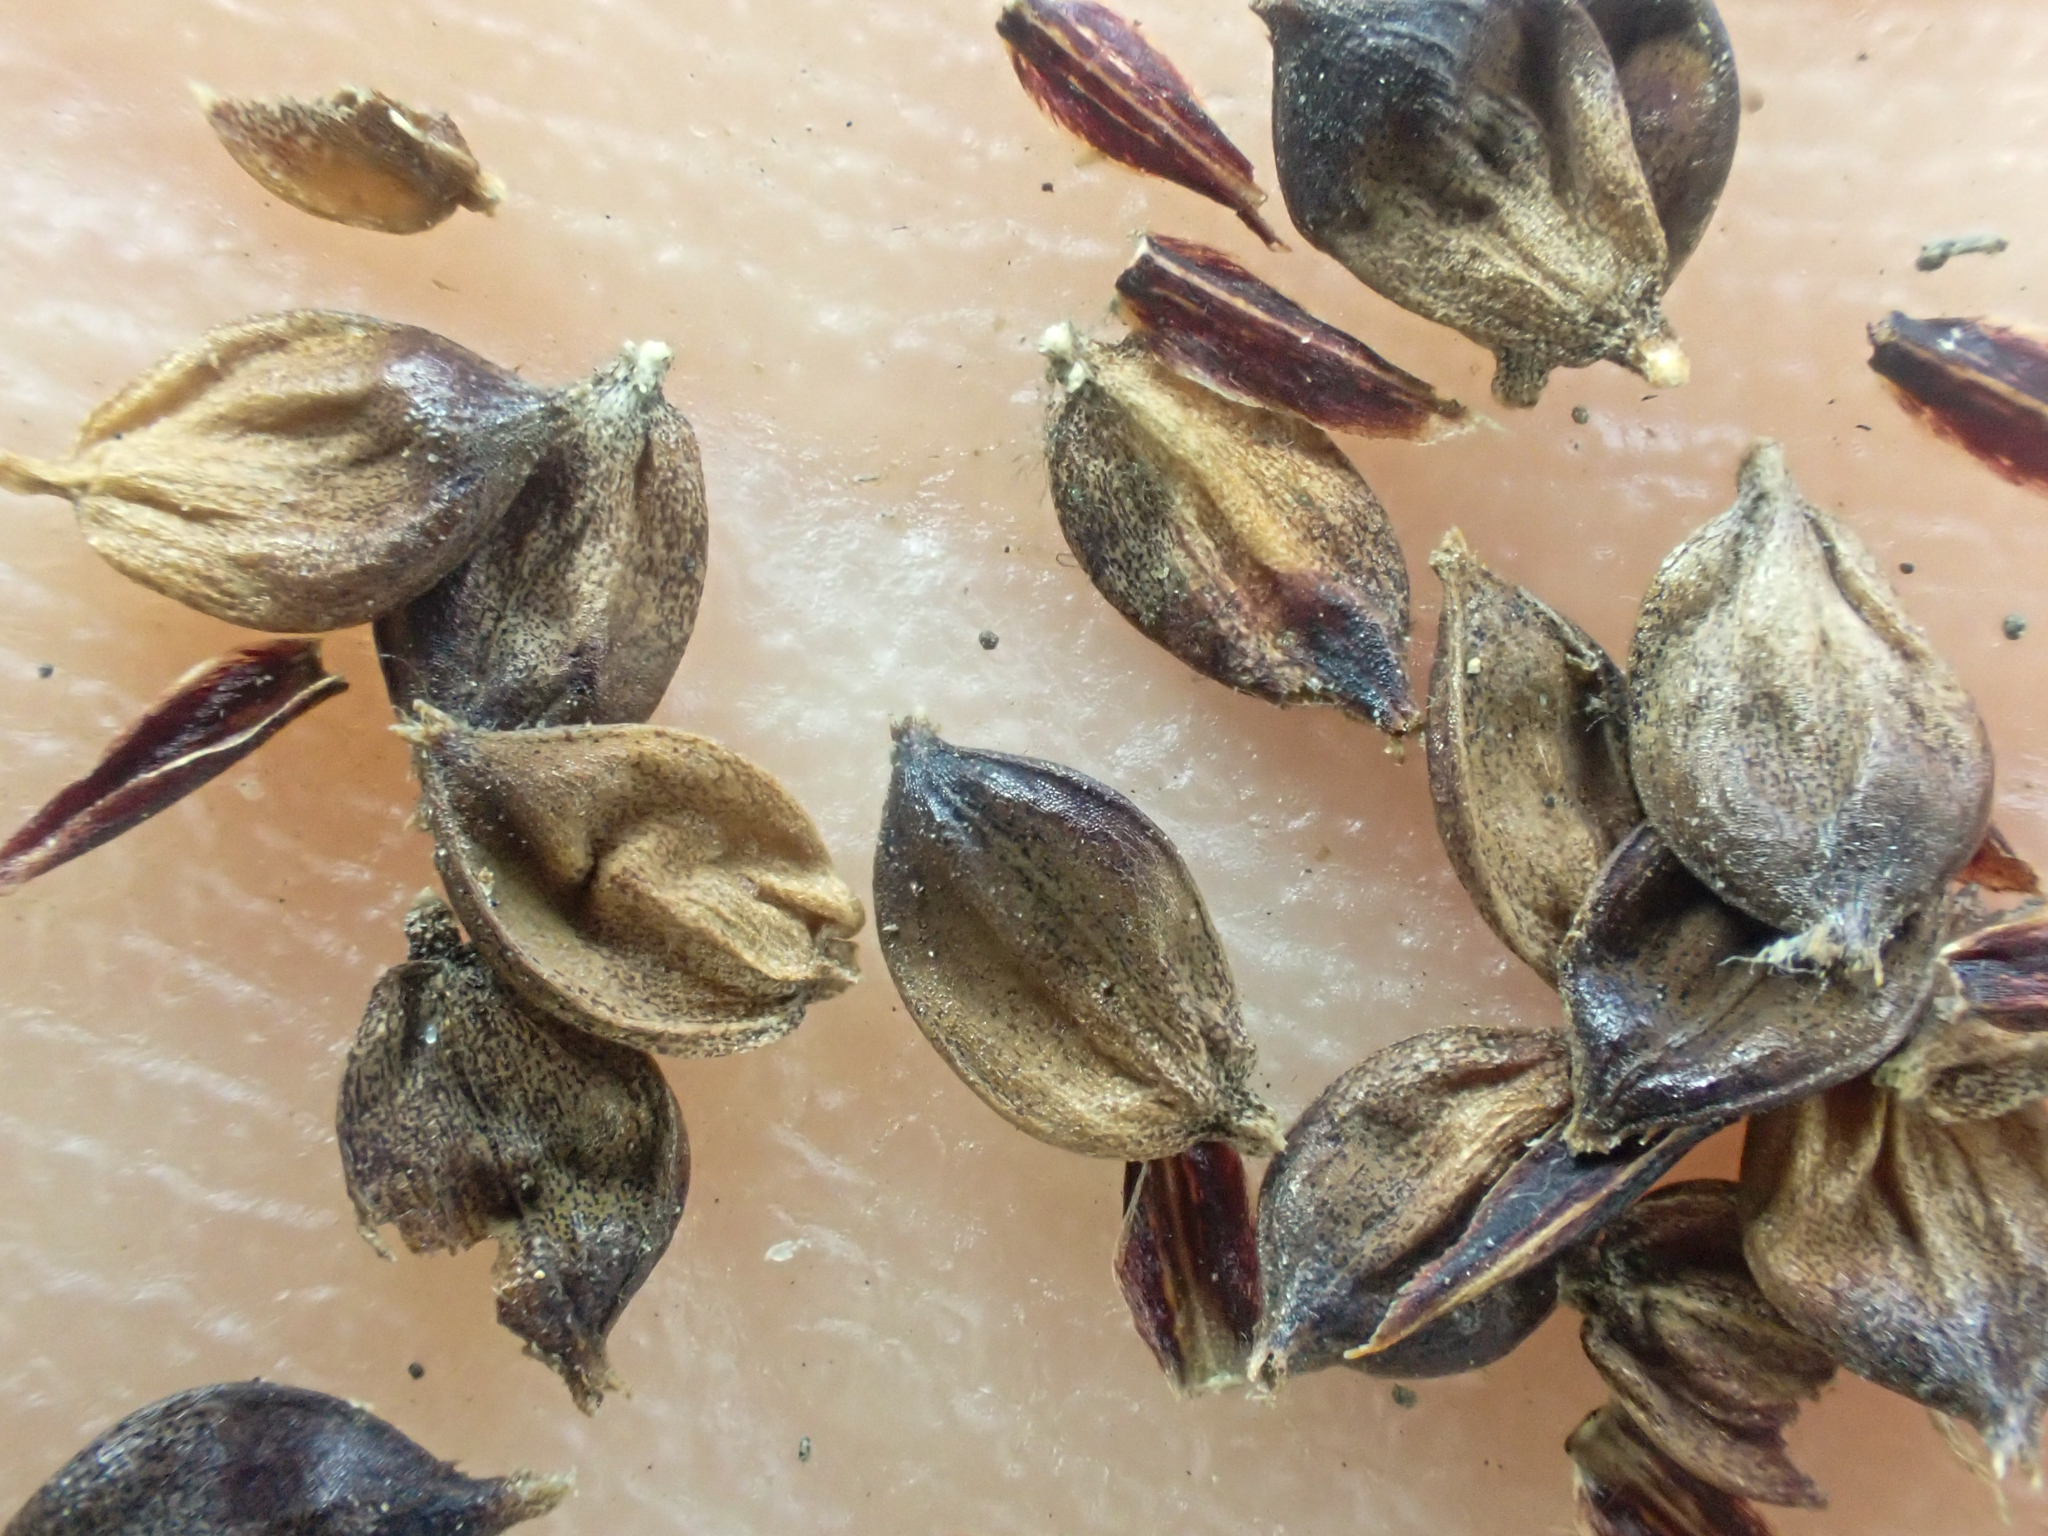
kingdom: Plantae
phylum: Tracheophyta
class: Liliopsida
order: Poales
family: Cyperaceae
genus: Carex
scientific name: Carex barbarae
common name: Santa barbara sedge
